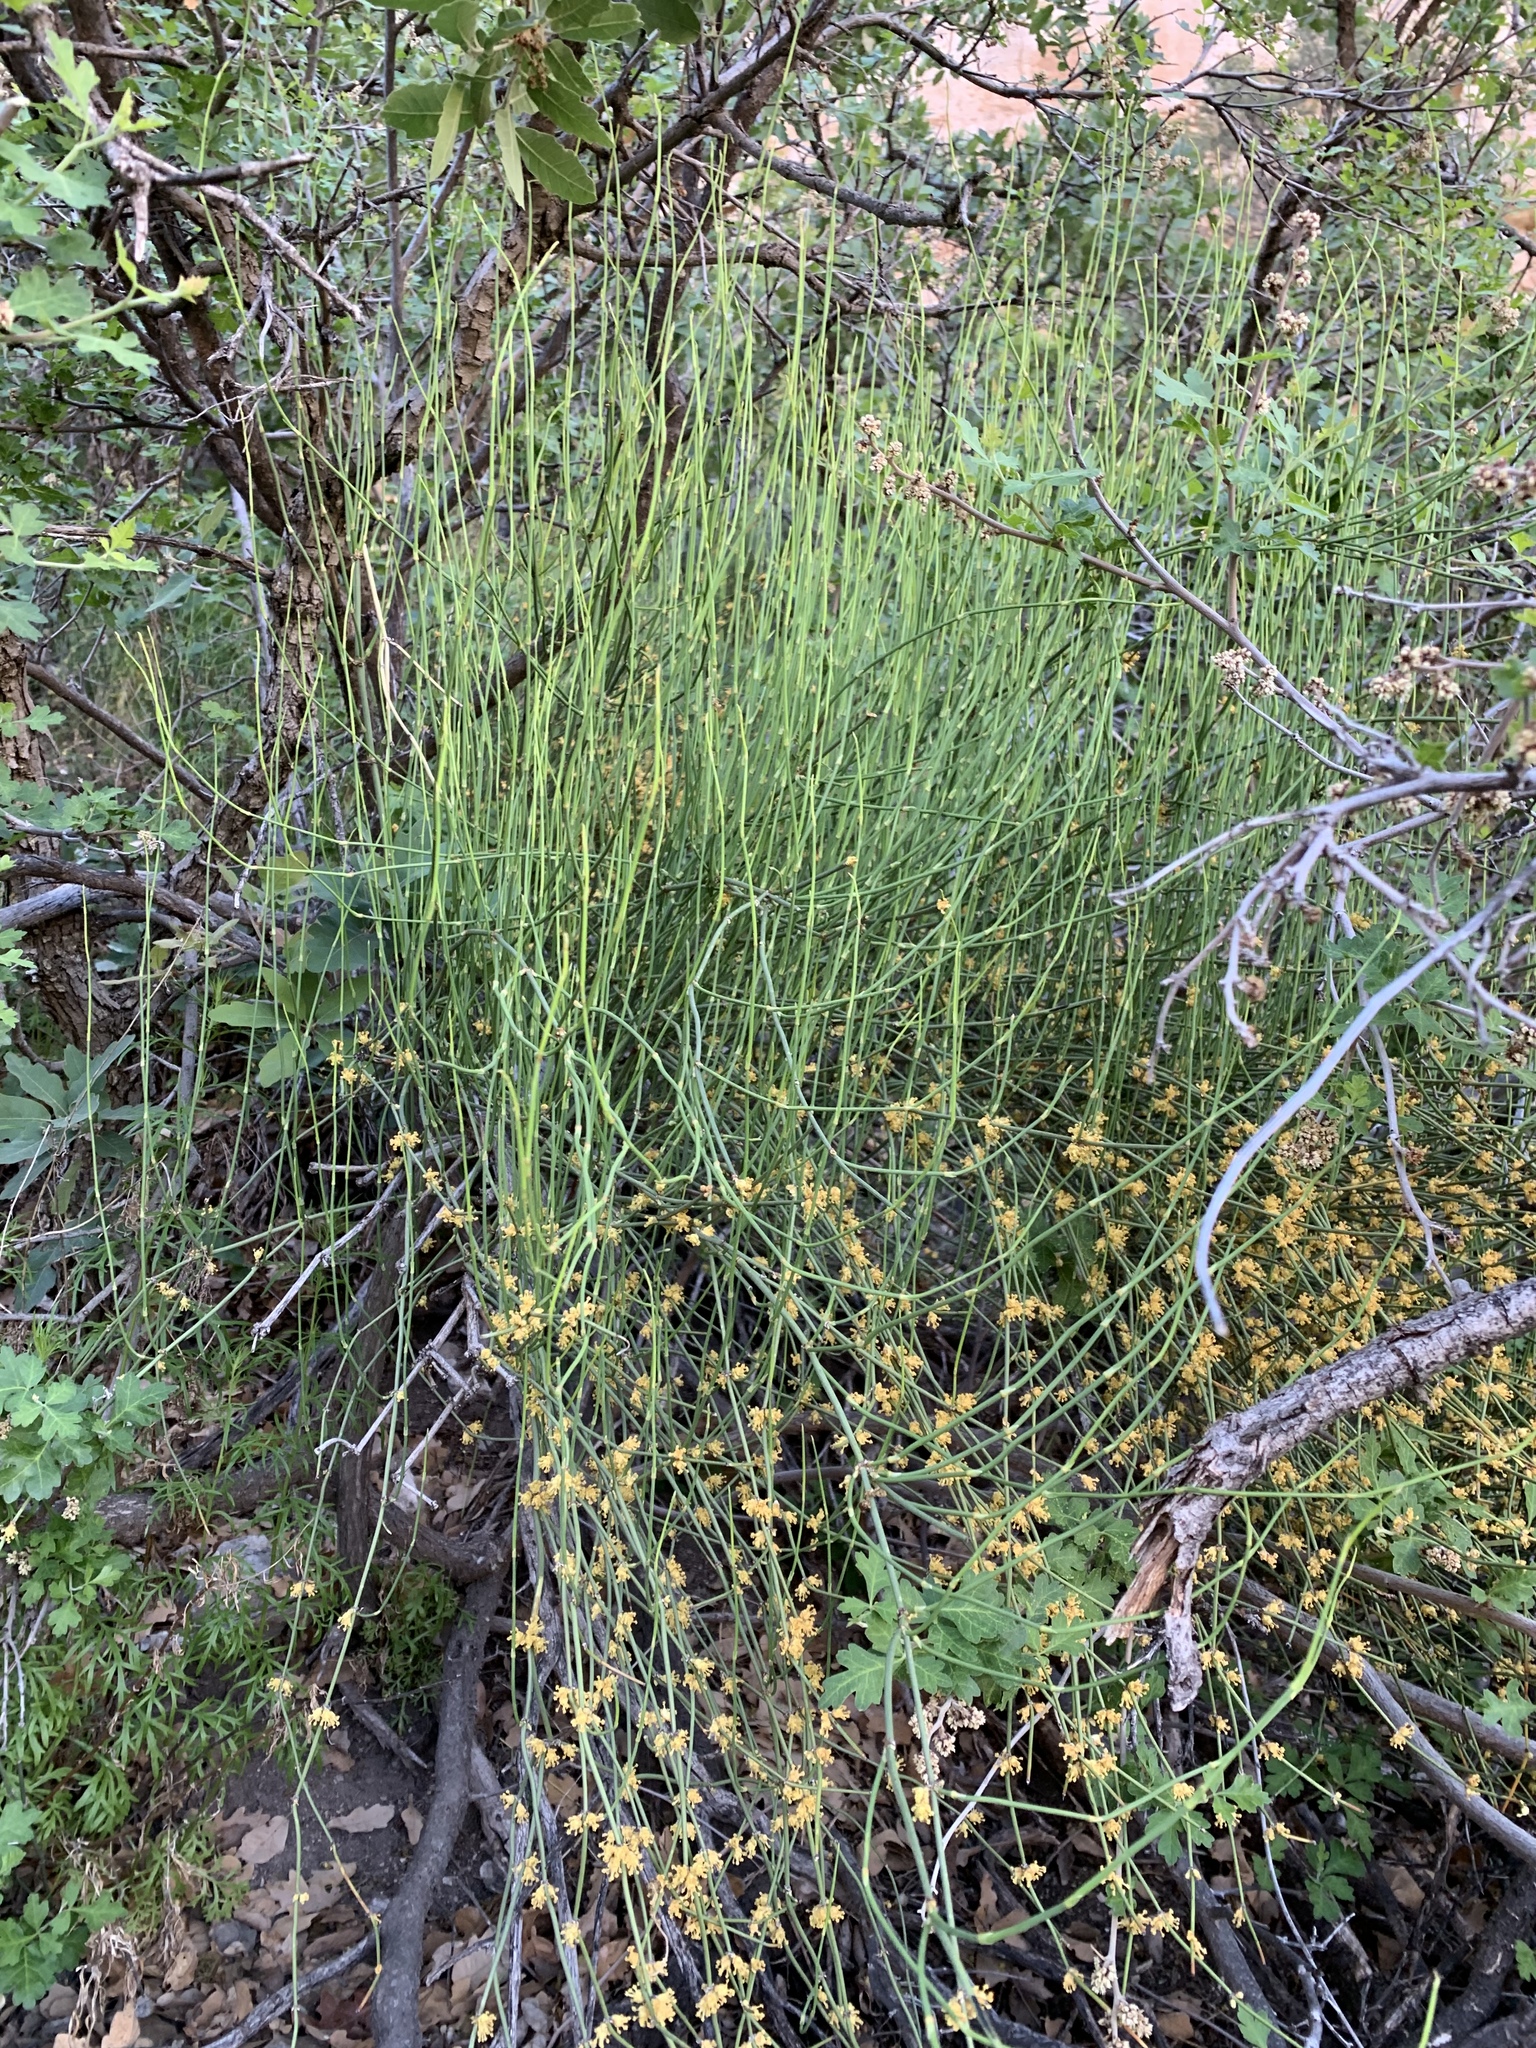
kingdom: Plantae
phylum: Tracheophyta
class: Gnetopsida
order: Ephedrales
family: Ephedraceae
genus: Ephedra
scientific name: Ephedra viridis
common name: Green ephedra
